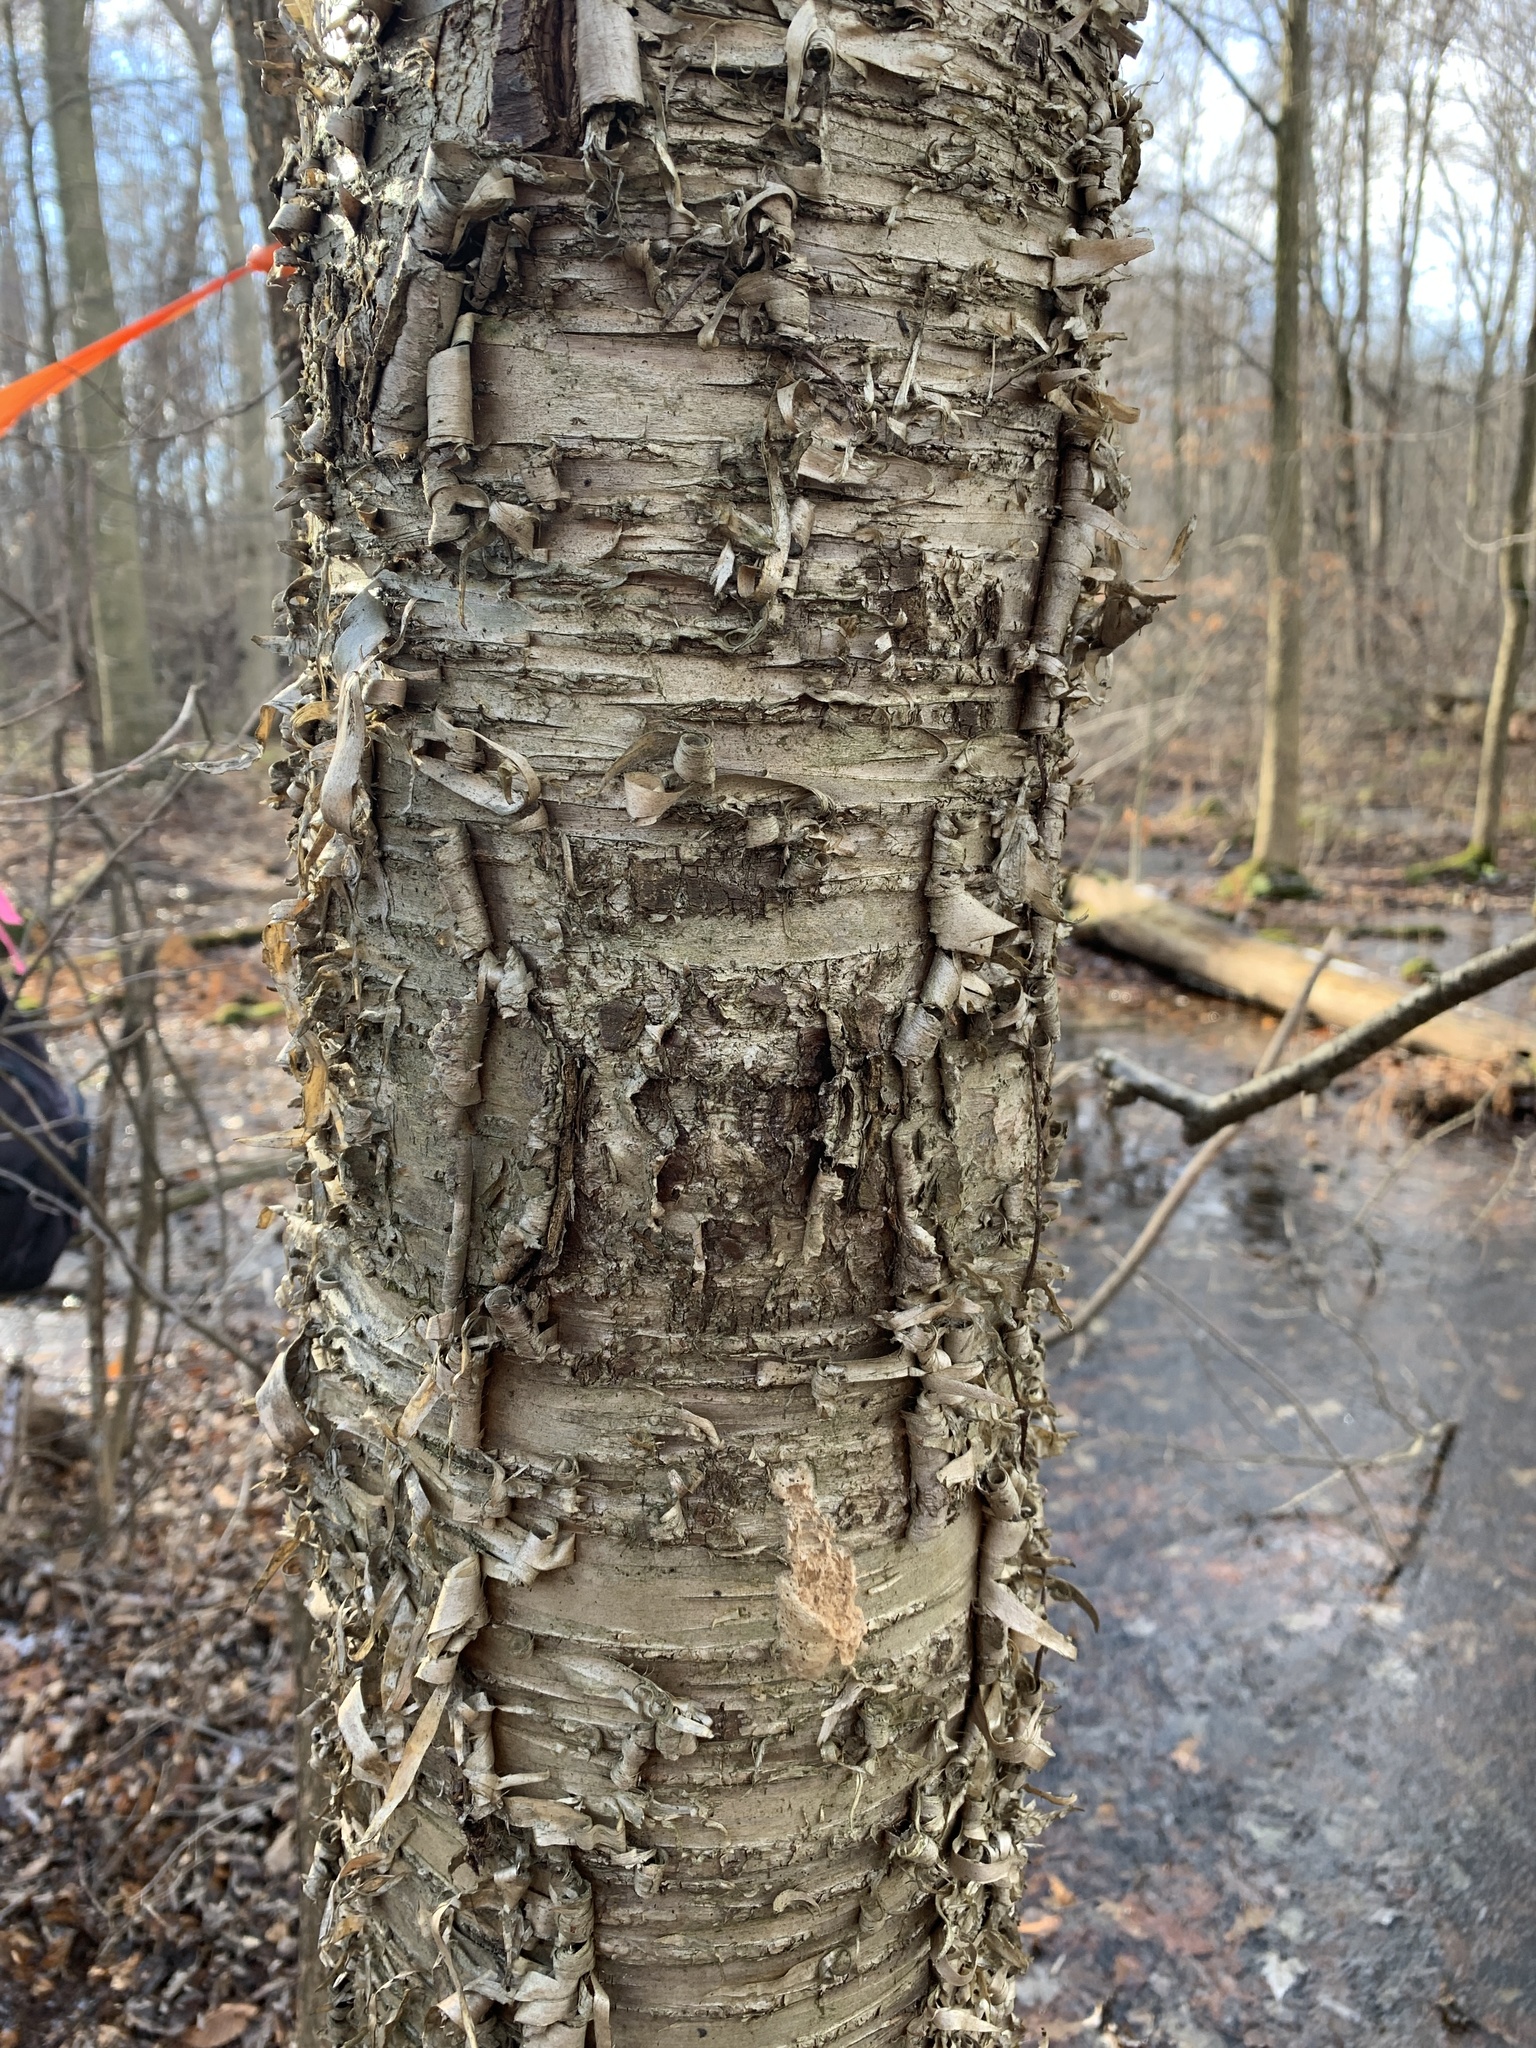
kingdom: Plantae
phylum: Tracheophyta
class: Magnoliopsida
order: Fagales
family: Betulaceae
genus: Betula
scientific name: Betula alleghaniensis
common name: Yellow birch
